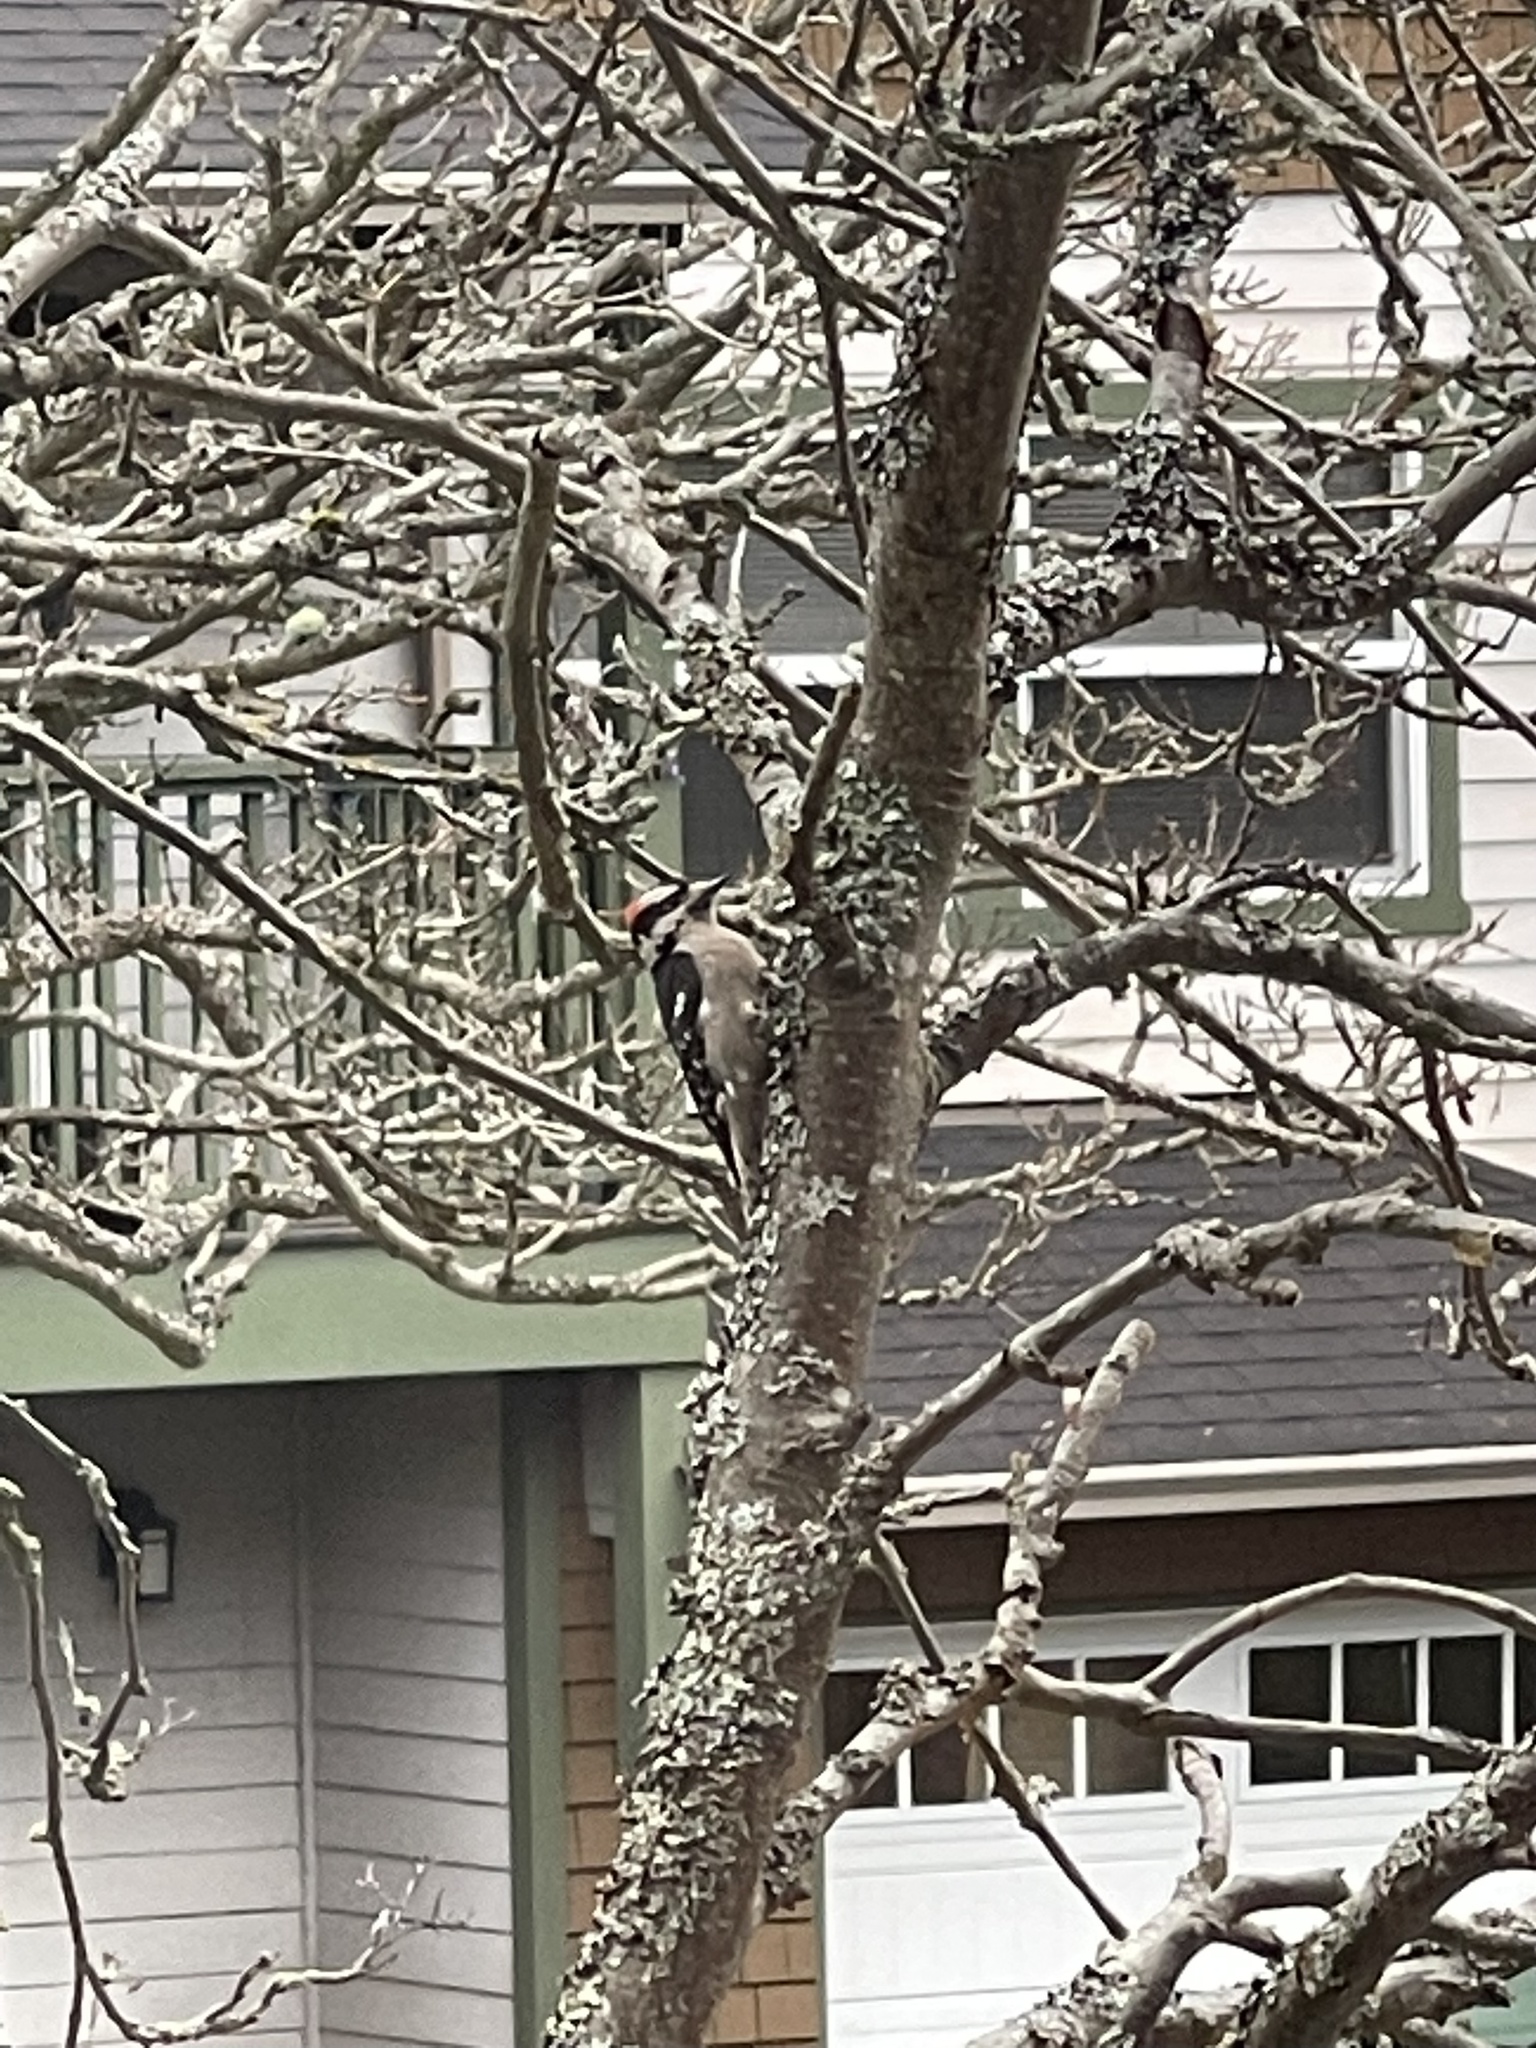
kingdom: Animalia
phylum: Chordata
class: Aves
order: Piciformes
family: Picidae
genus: Dryobates
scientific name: Dryobates pubescens
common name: Downy woodpecker
